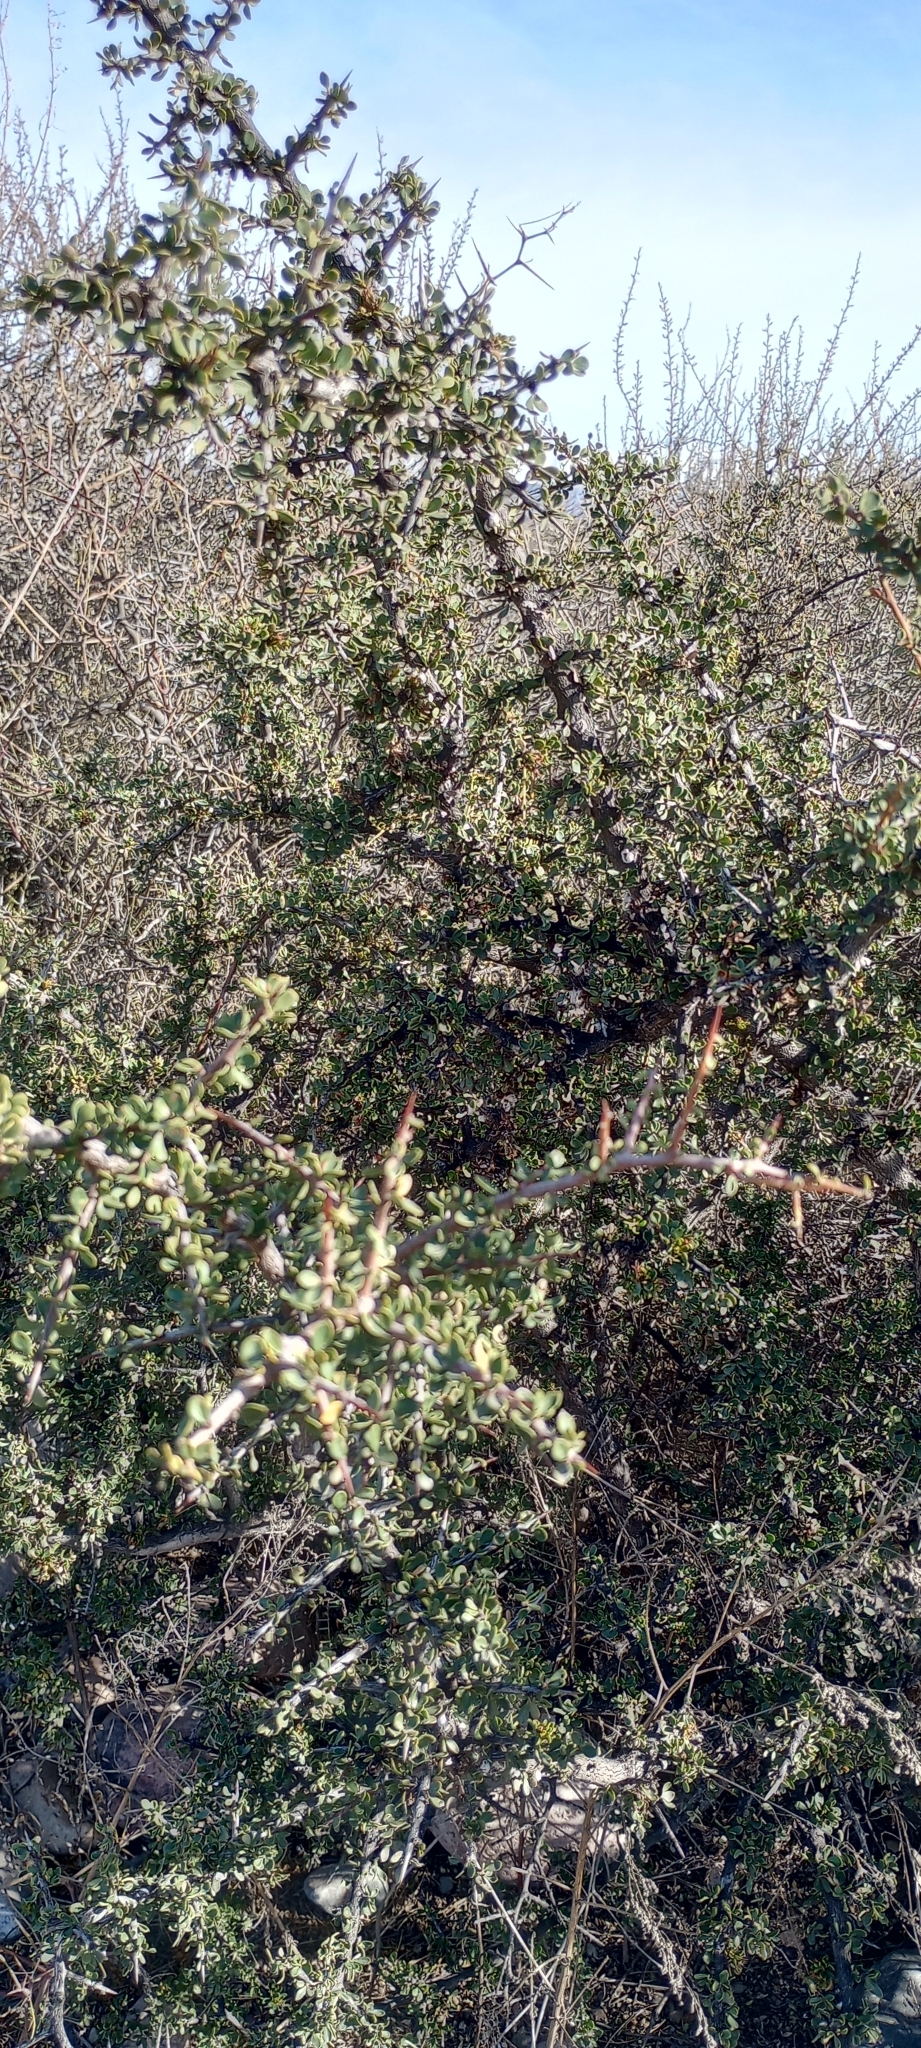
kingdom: Plantae
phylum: Tracheophyta
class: Magnoliopsida
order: Rosales
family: Rhamnaceae
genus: Condalia
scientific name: Condalia microphylla
